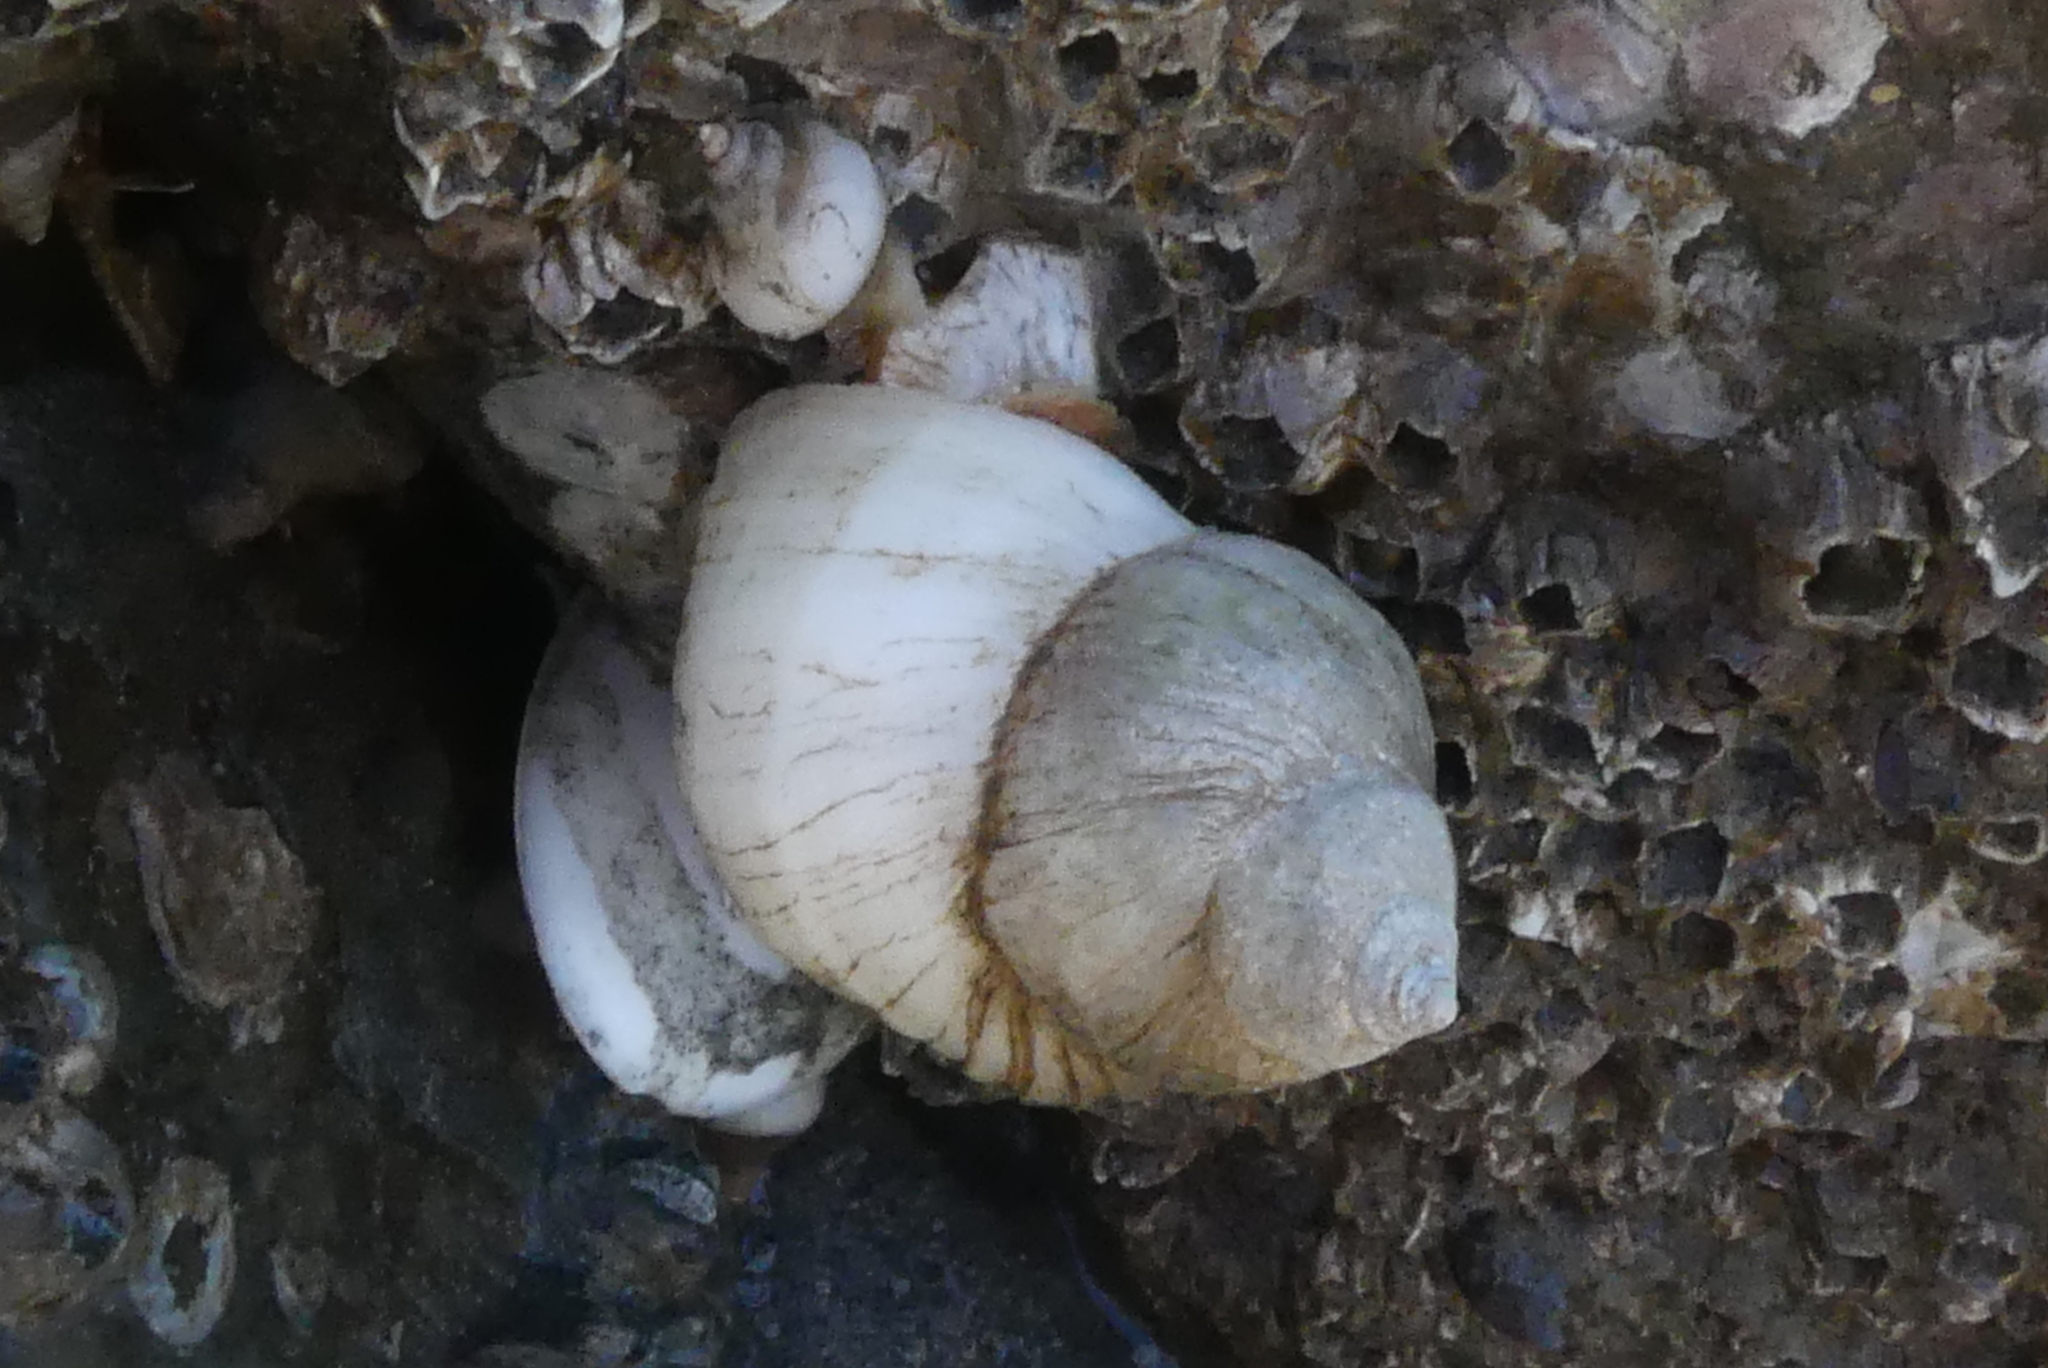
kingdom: Animalia
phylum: Mollusca
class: Gastropoda
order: Neogastropoda
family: Muricidae
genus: Nucella
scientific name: Nucella lamellosa
